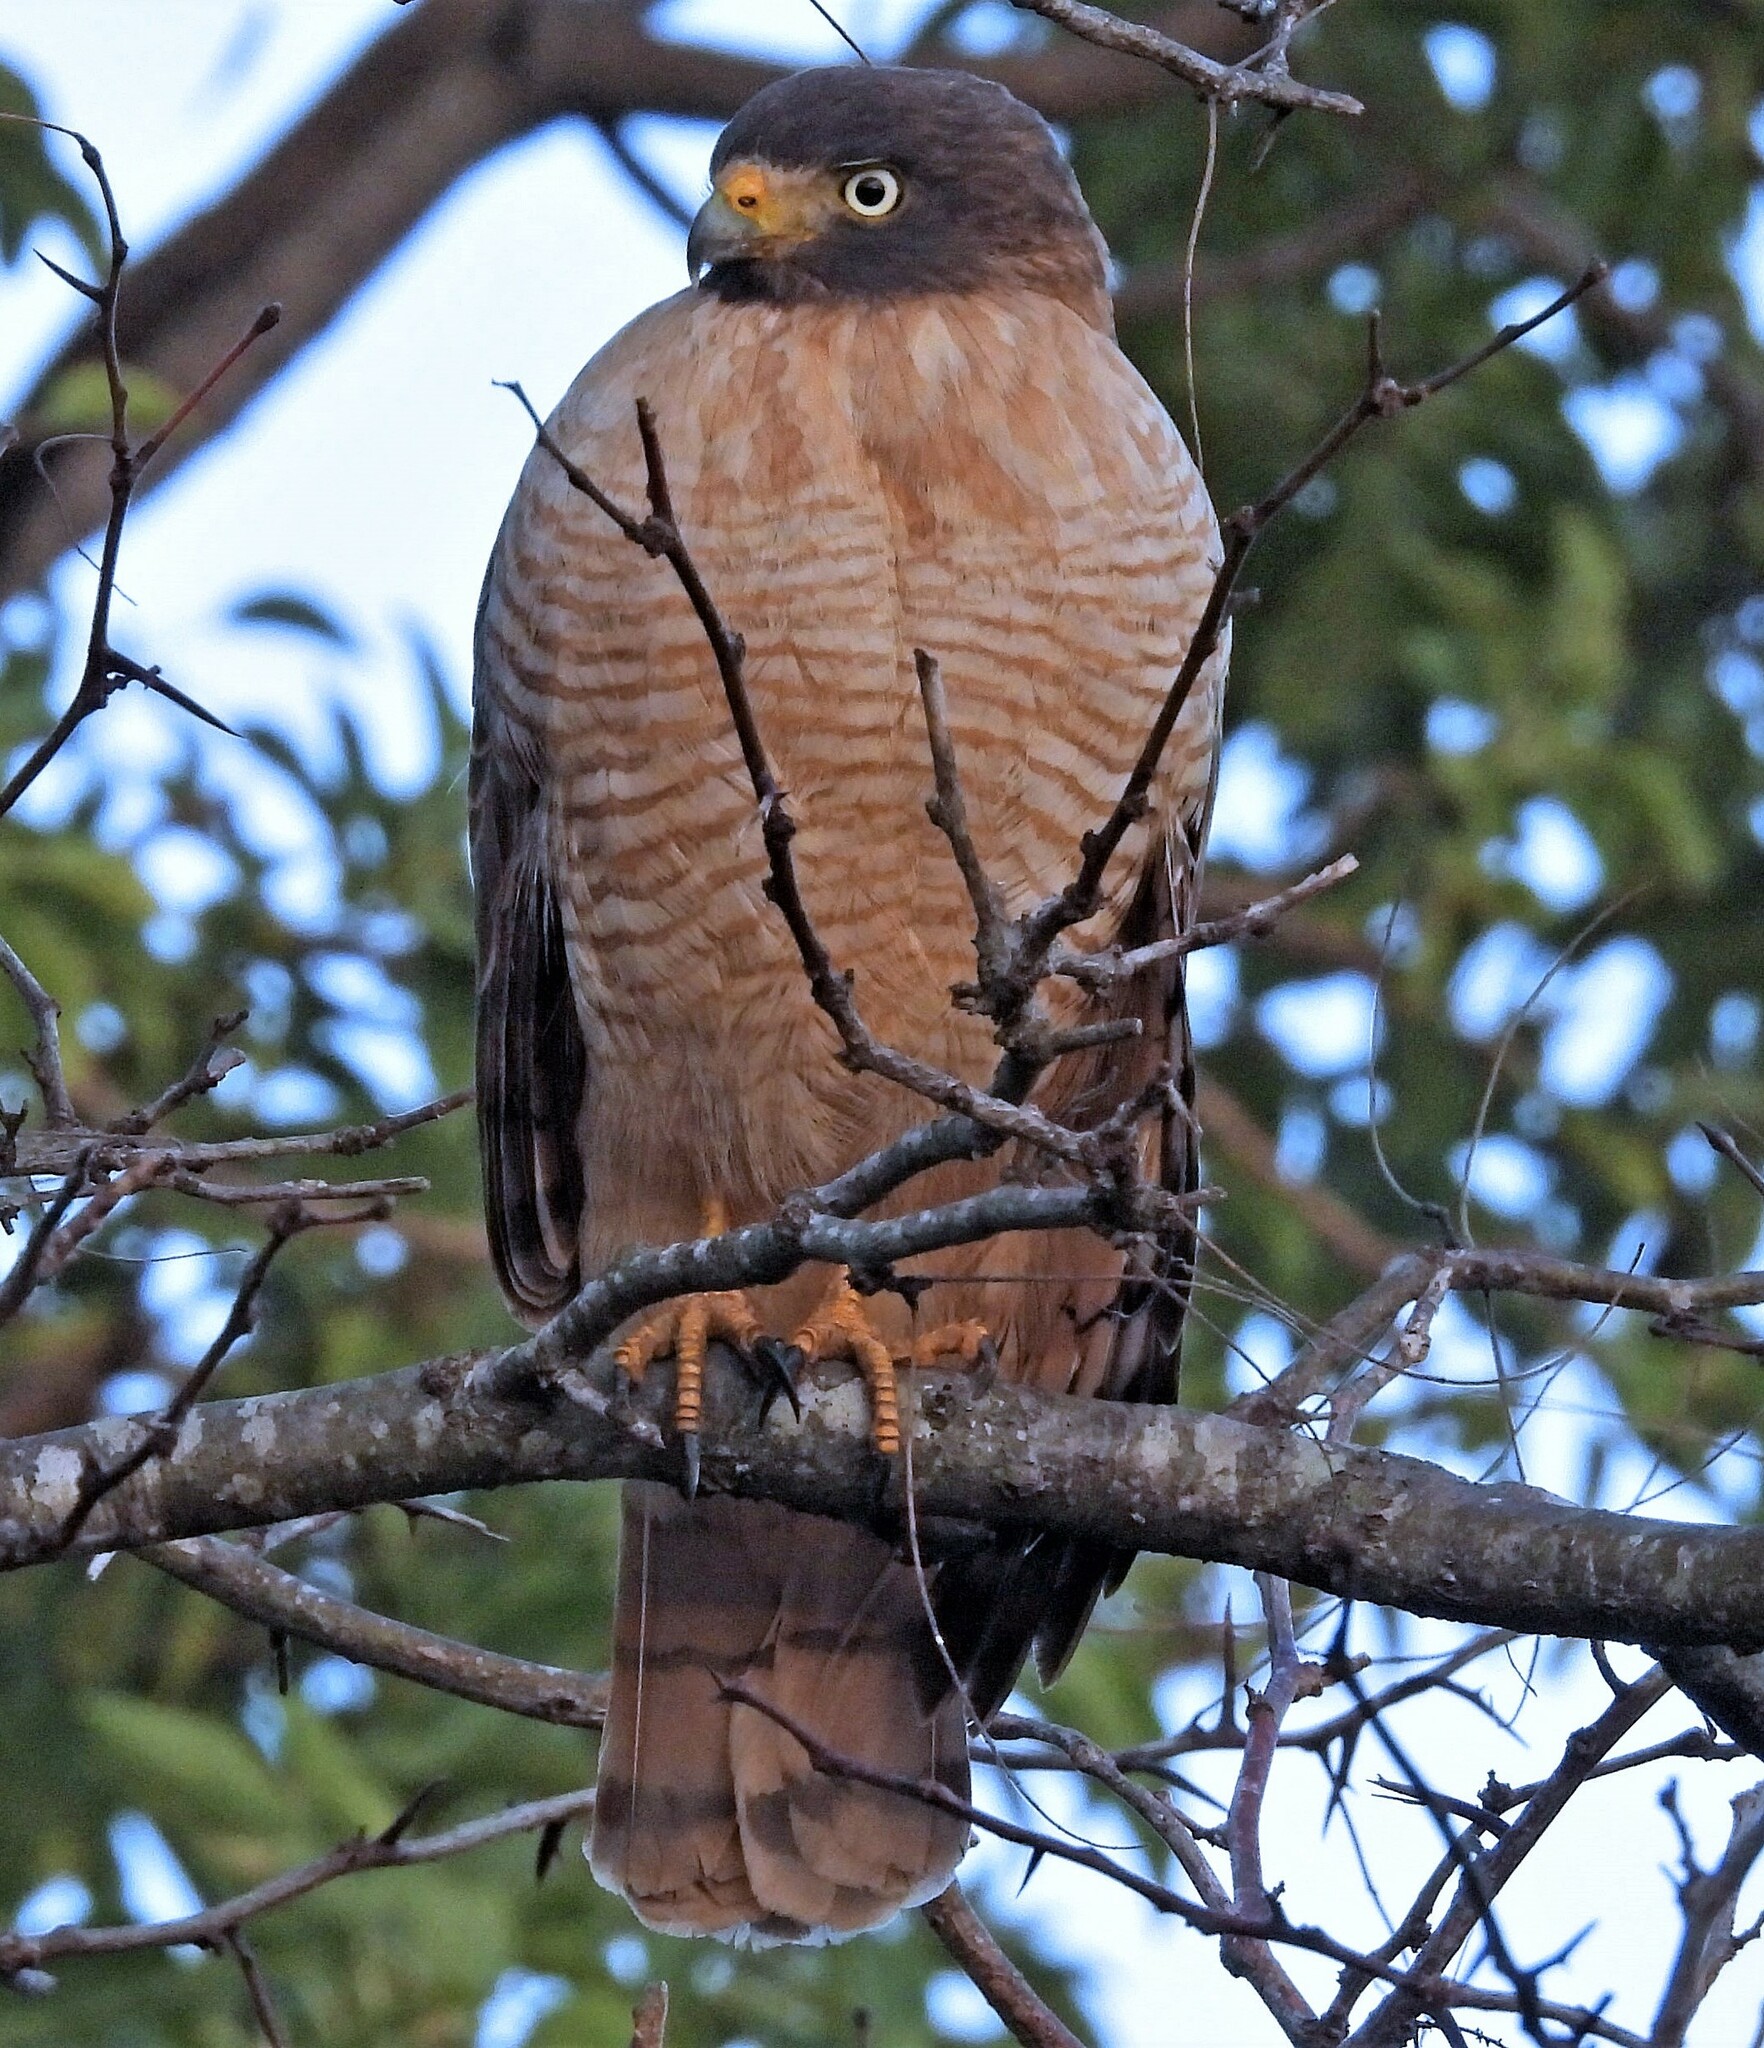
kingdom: Animalia
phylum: Chordata
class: Aves
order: Accipitriformes
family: Accipitridae
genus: Rupornis
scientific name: Rupornis magnirostris
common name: Roadside hawk
